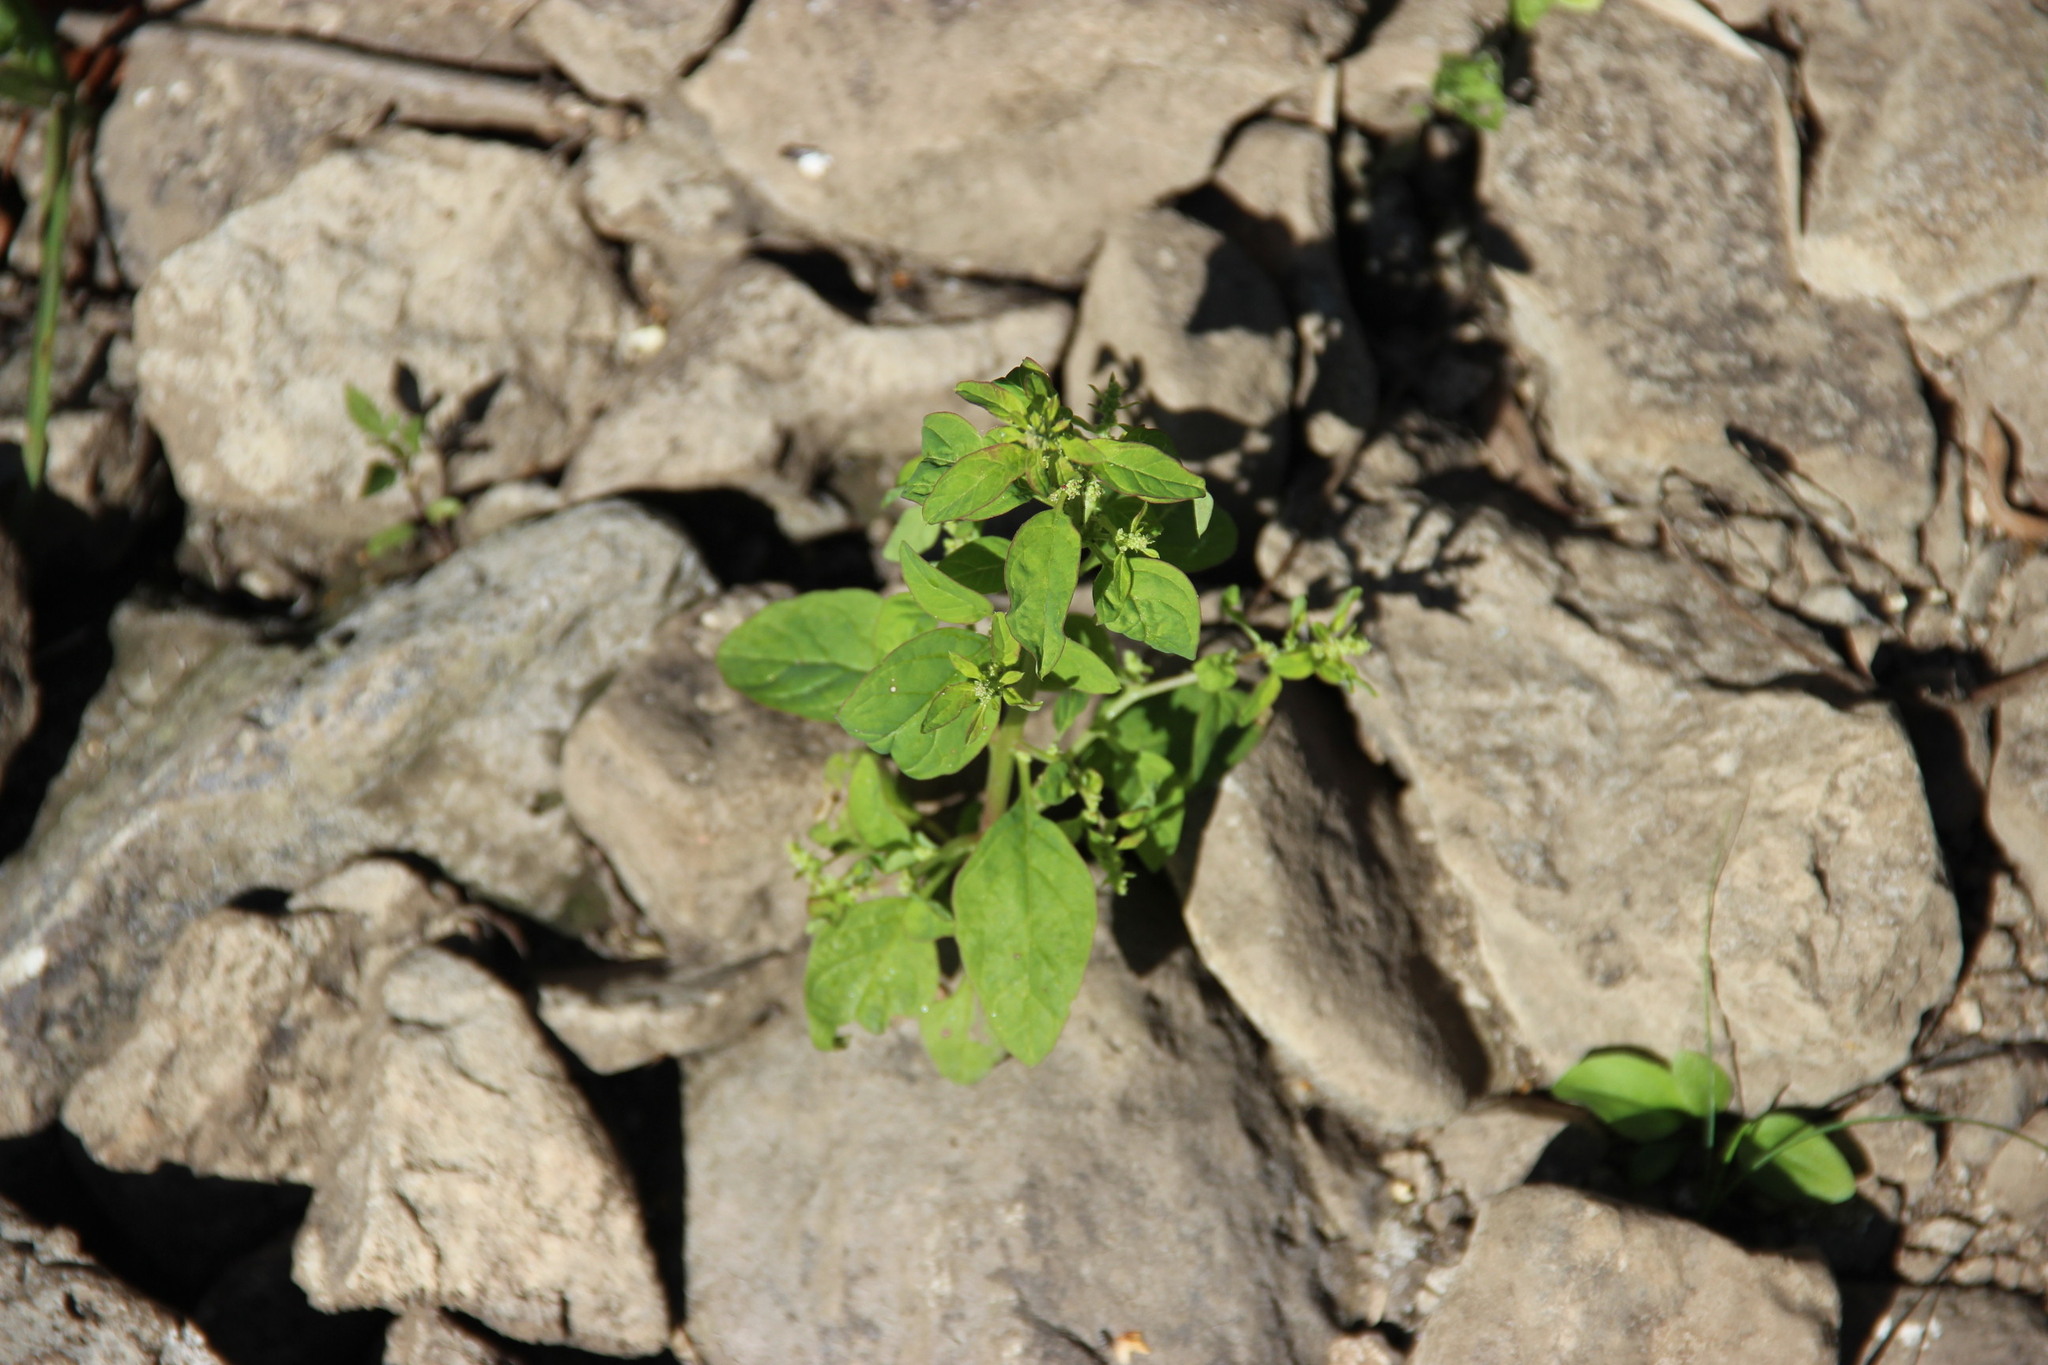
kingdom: Plantae
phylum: Tracheophyta
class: Magnoliopsida
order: Caryophyllales
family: Amaranthaceae
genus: Lipandra
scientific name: Lipandra polysperma
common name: Many-seed goosefoot
